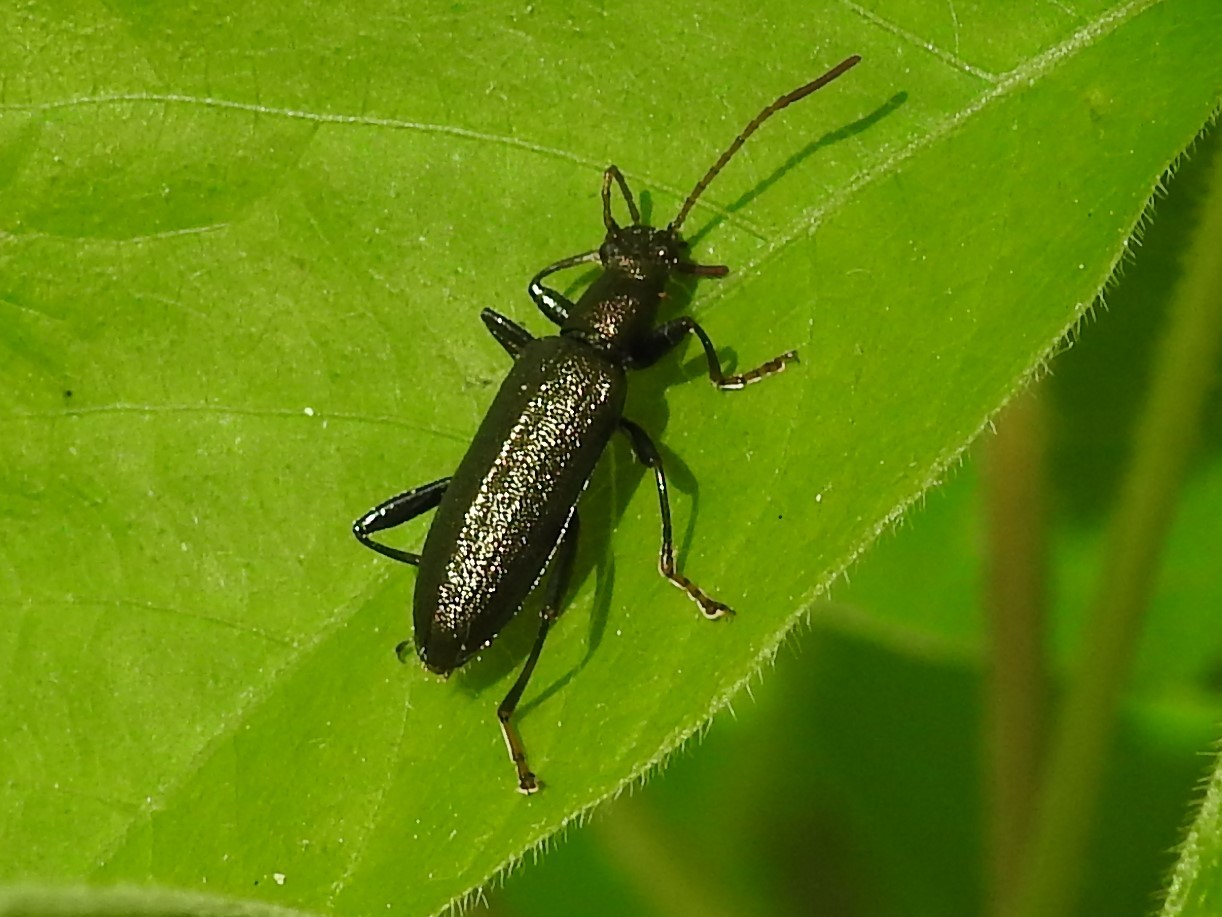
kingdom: Animalia
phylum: Arthropoda
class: Insecta
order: Coleoptera
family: Tenebrionidae
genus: Arthromacra
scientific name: Arthromacra aenea
